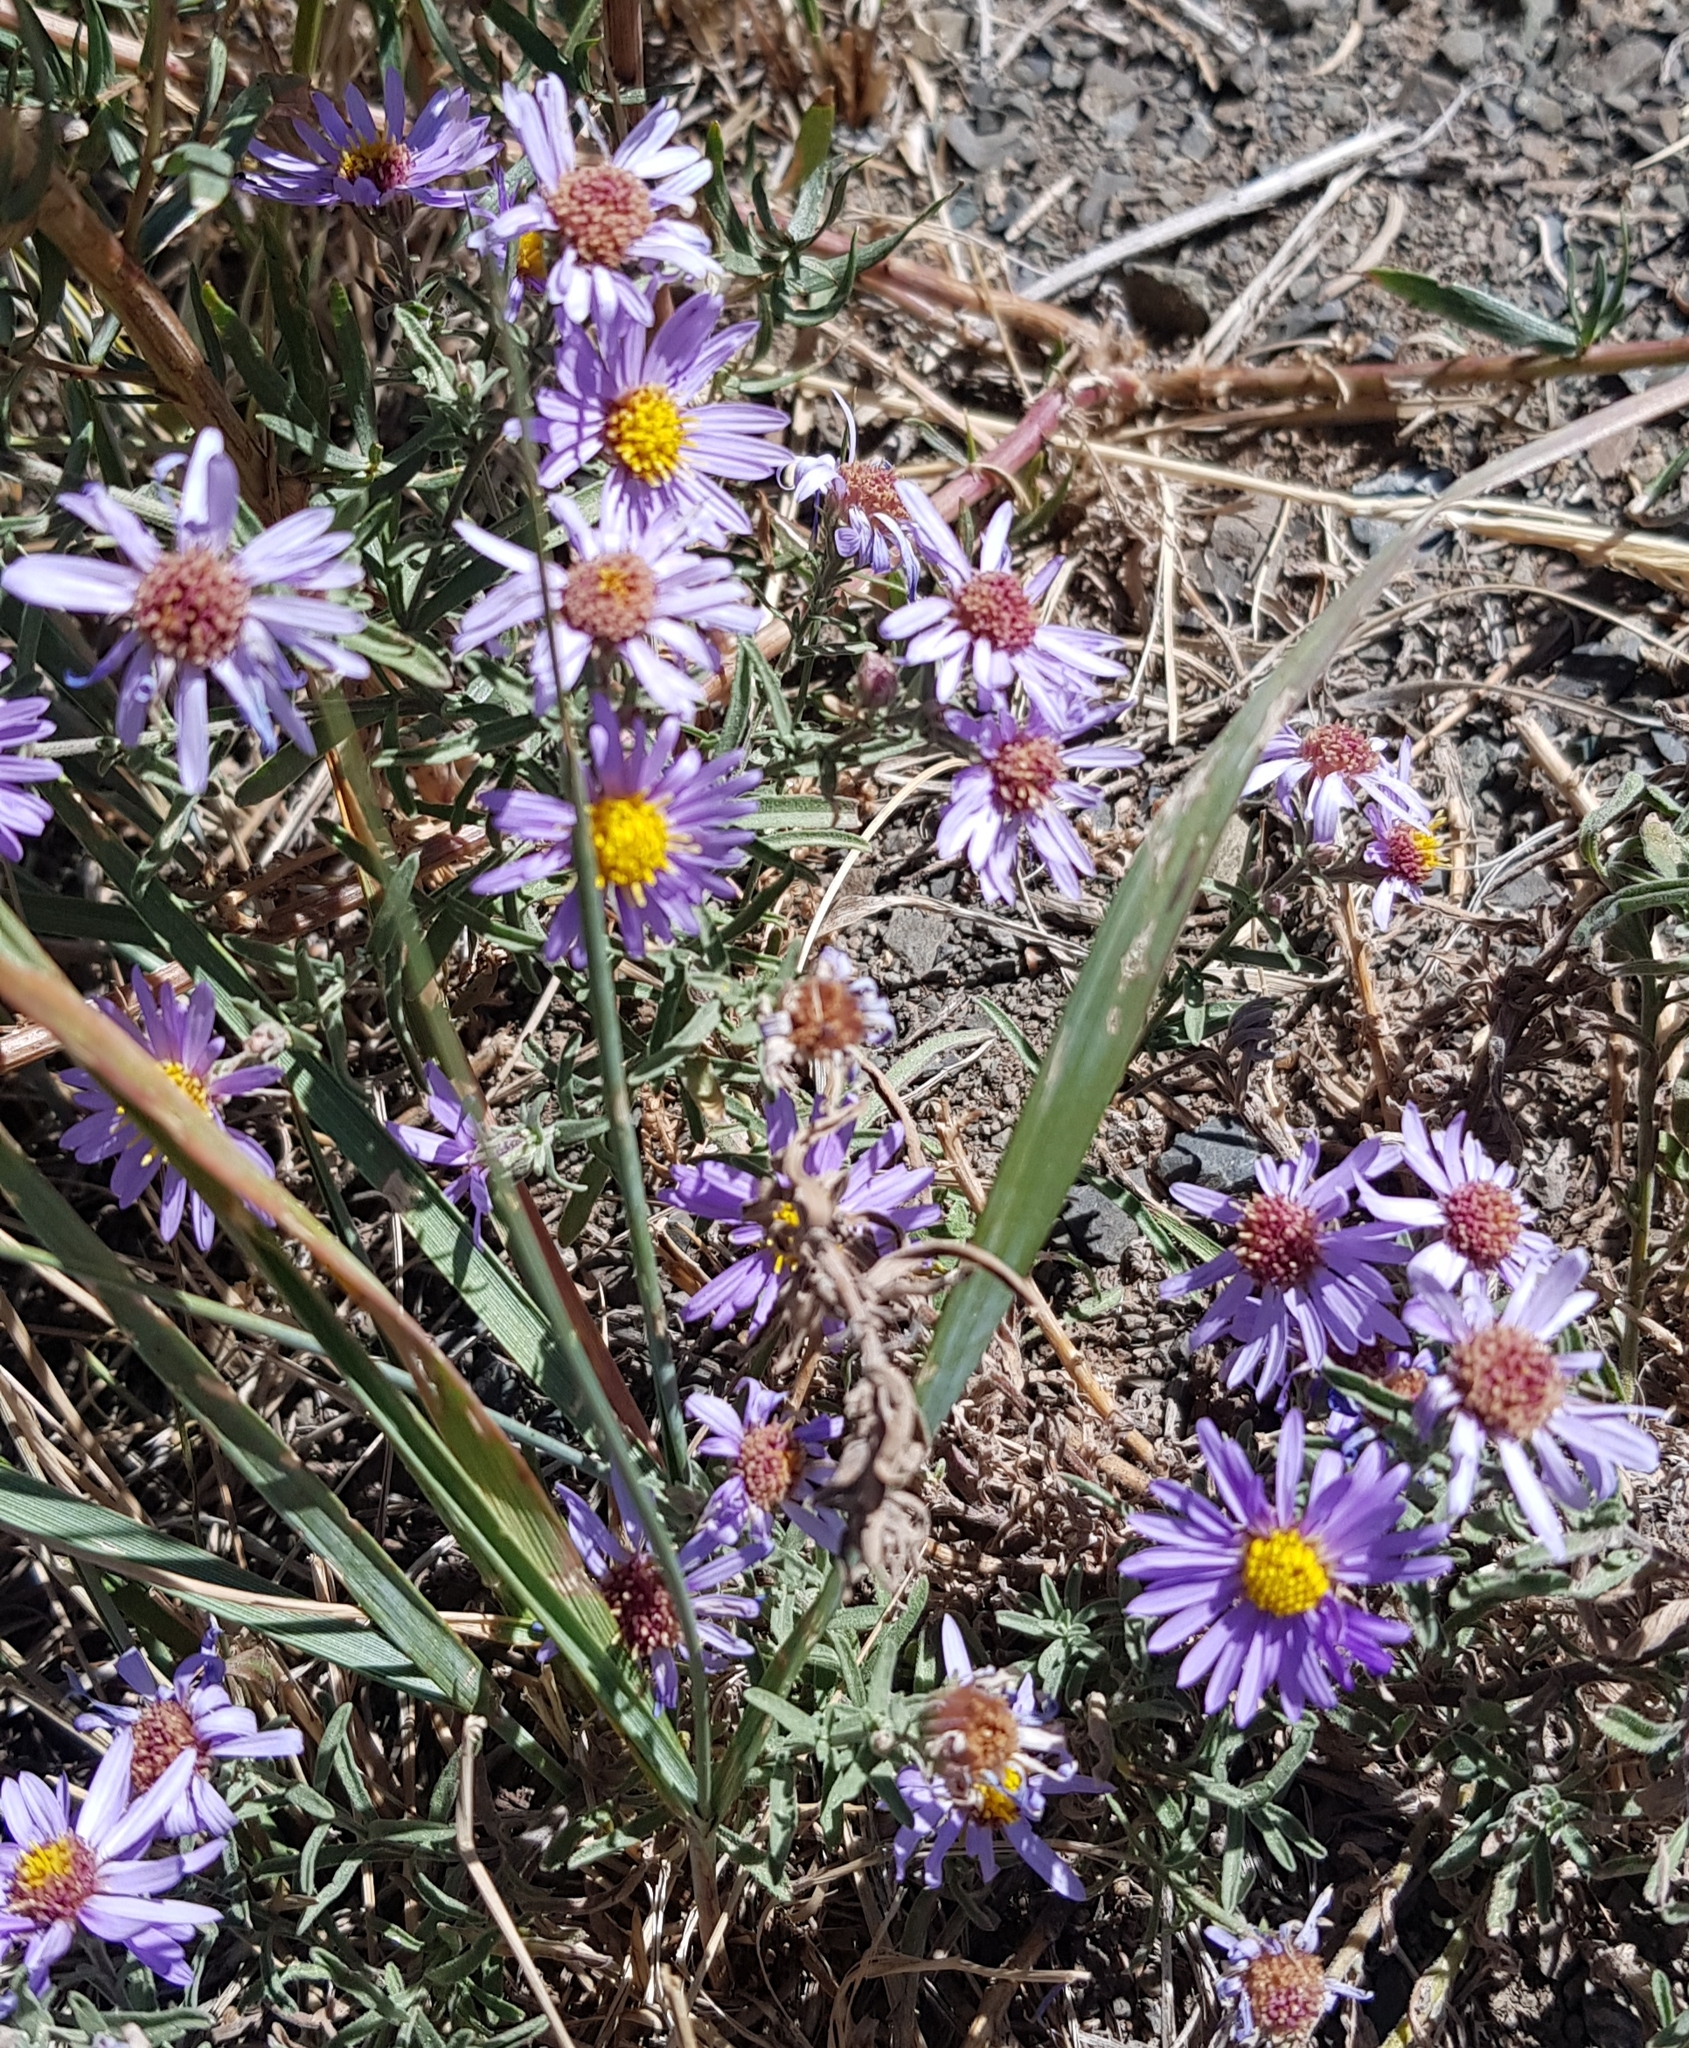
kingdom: Plantae
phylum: Tracheophyta
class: Magnoliopsida
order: Asterales
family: Asteraceae
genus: Heteropappus
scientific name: Heteropappus altaicus
